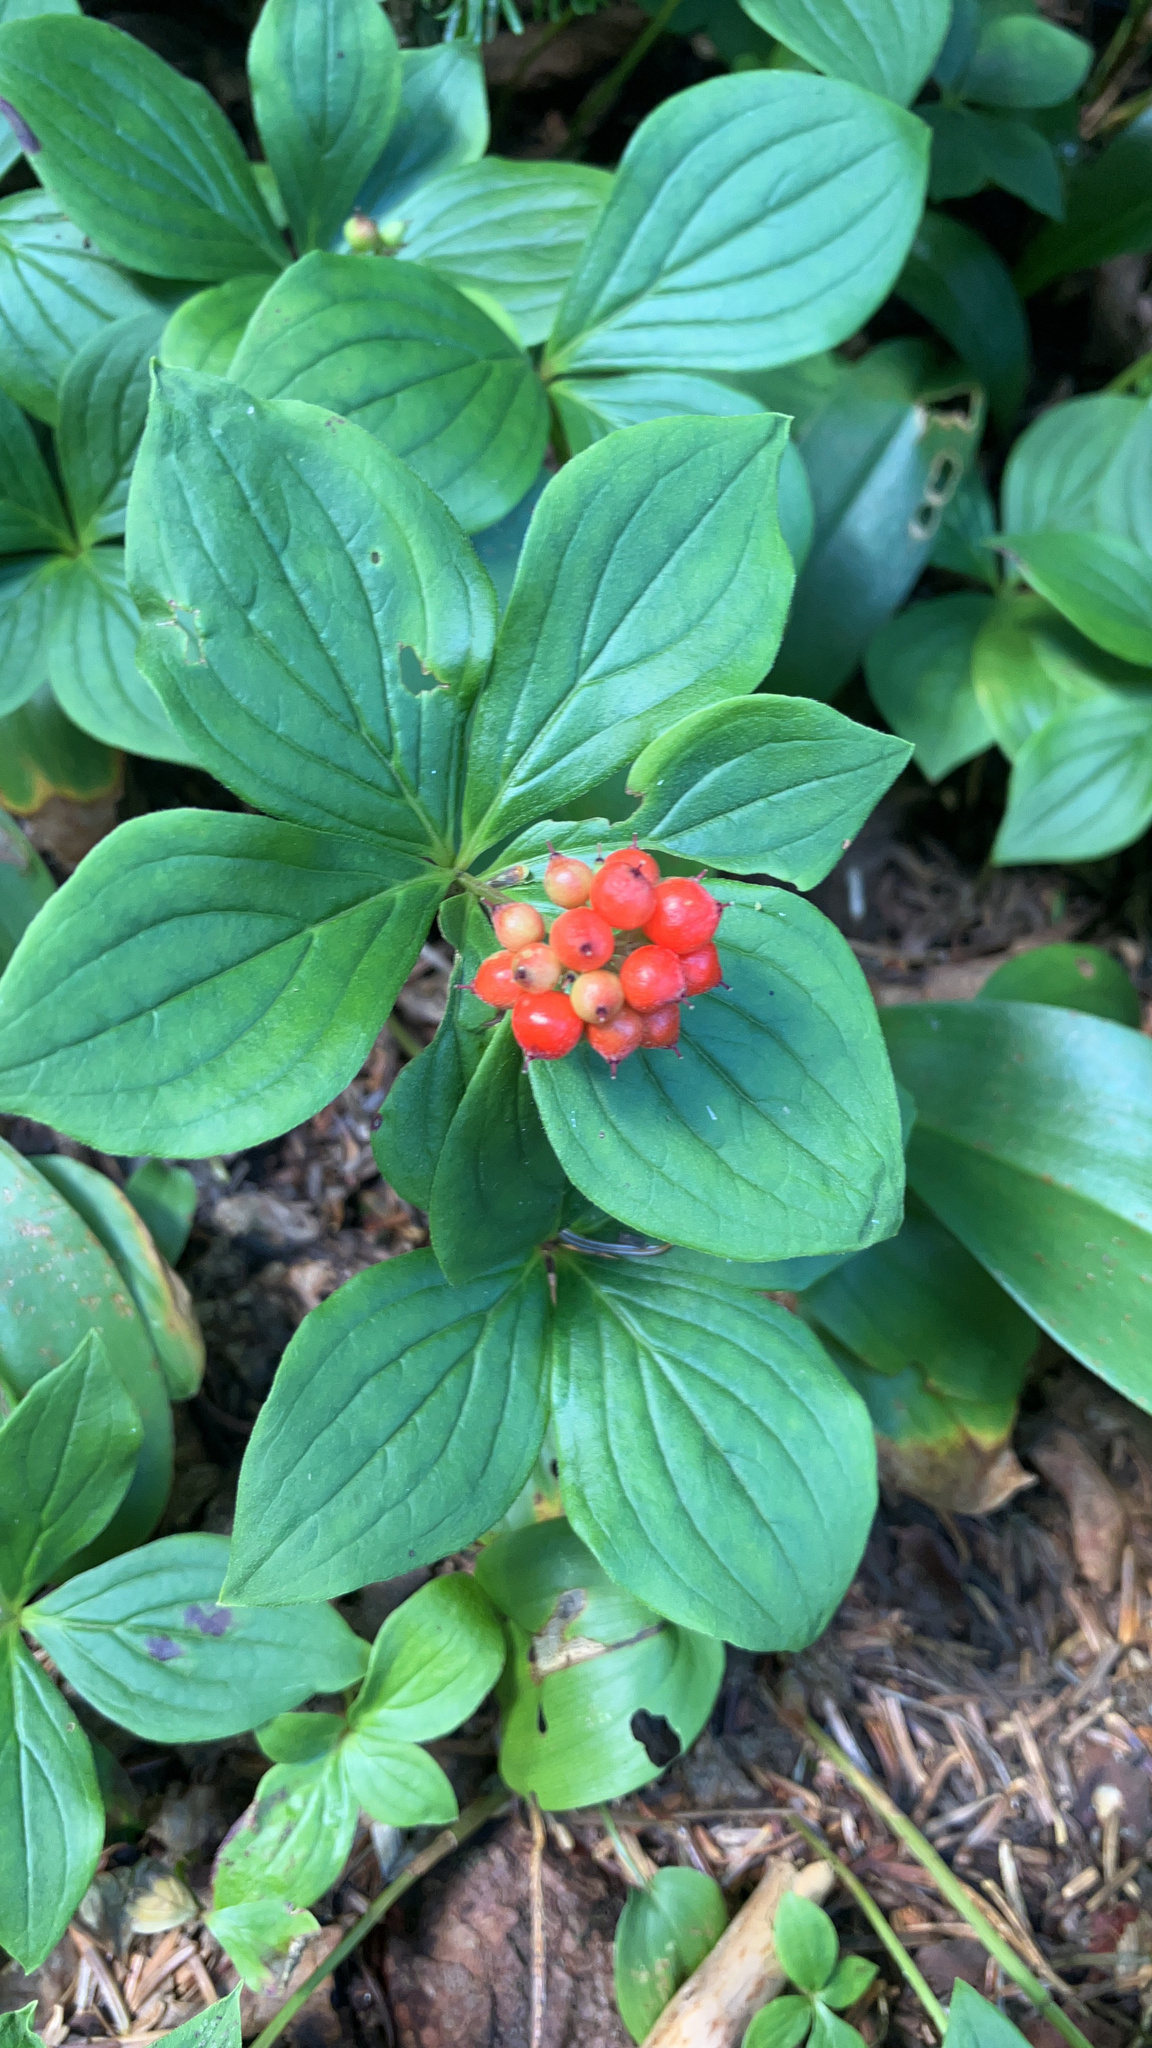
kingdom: Plantae
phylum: Tracheophyta
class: Magnoliopsida
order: Cornales
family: Cornaceae
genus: Cornus
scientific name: Cornus canadensis
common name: Creeping dogwood
